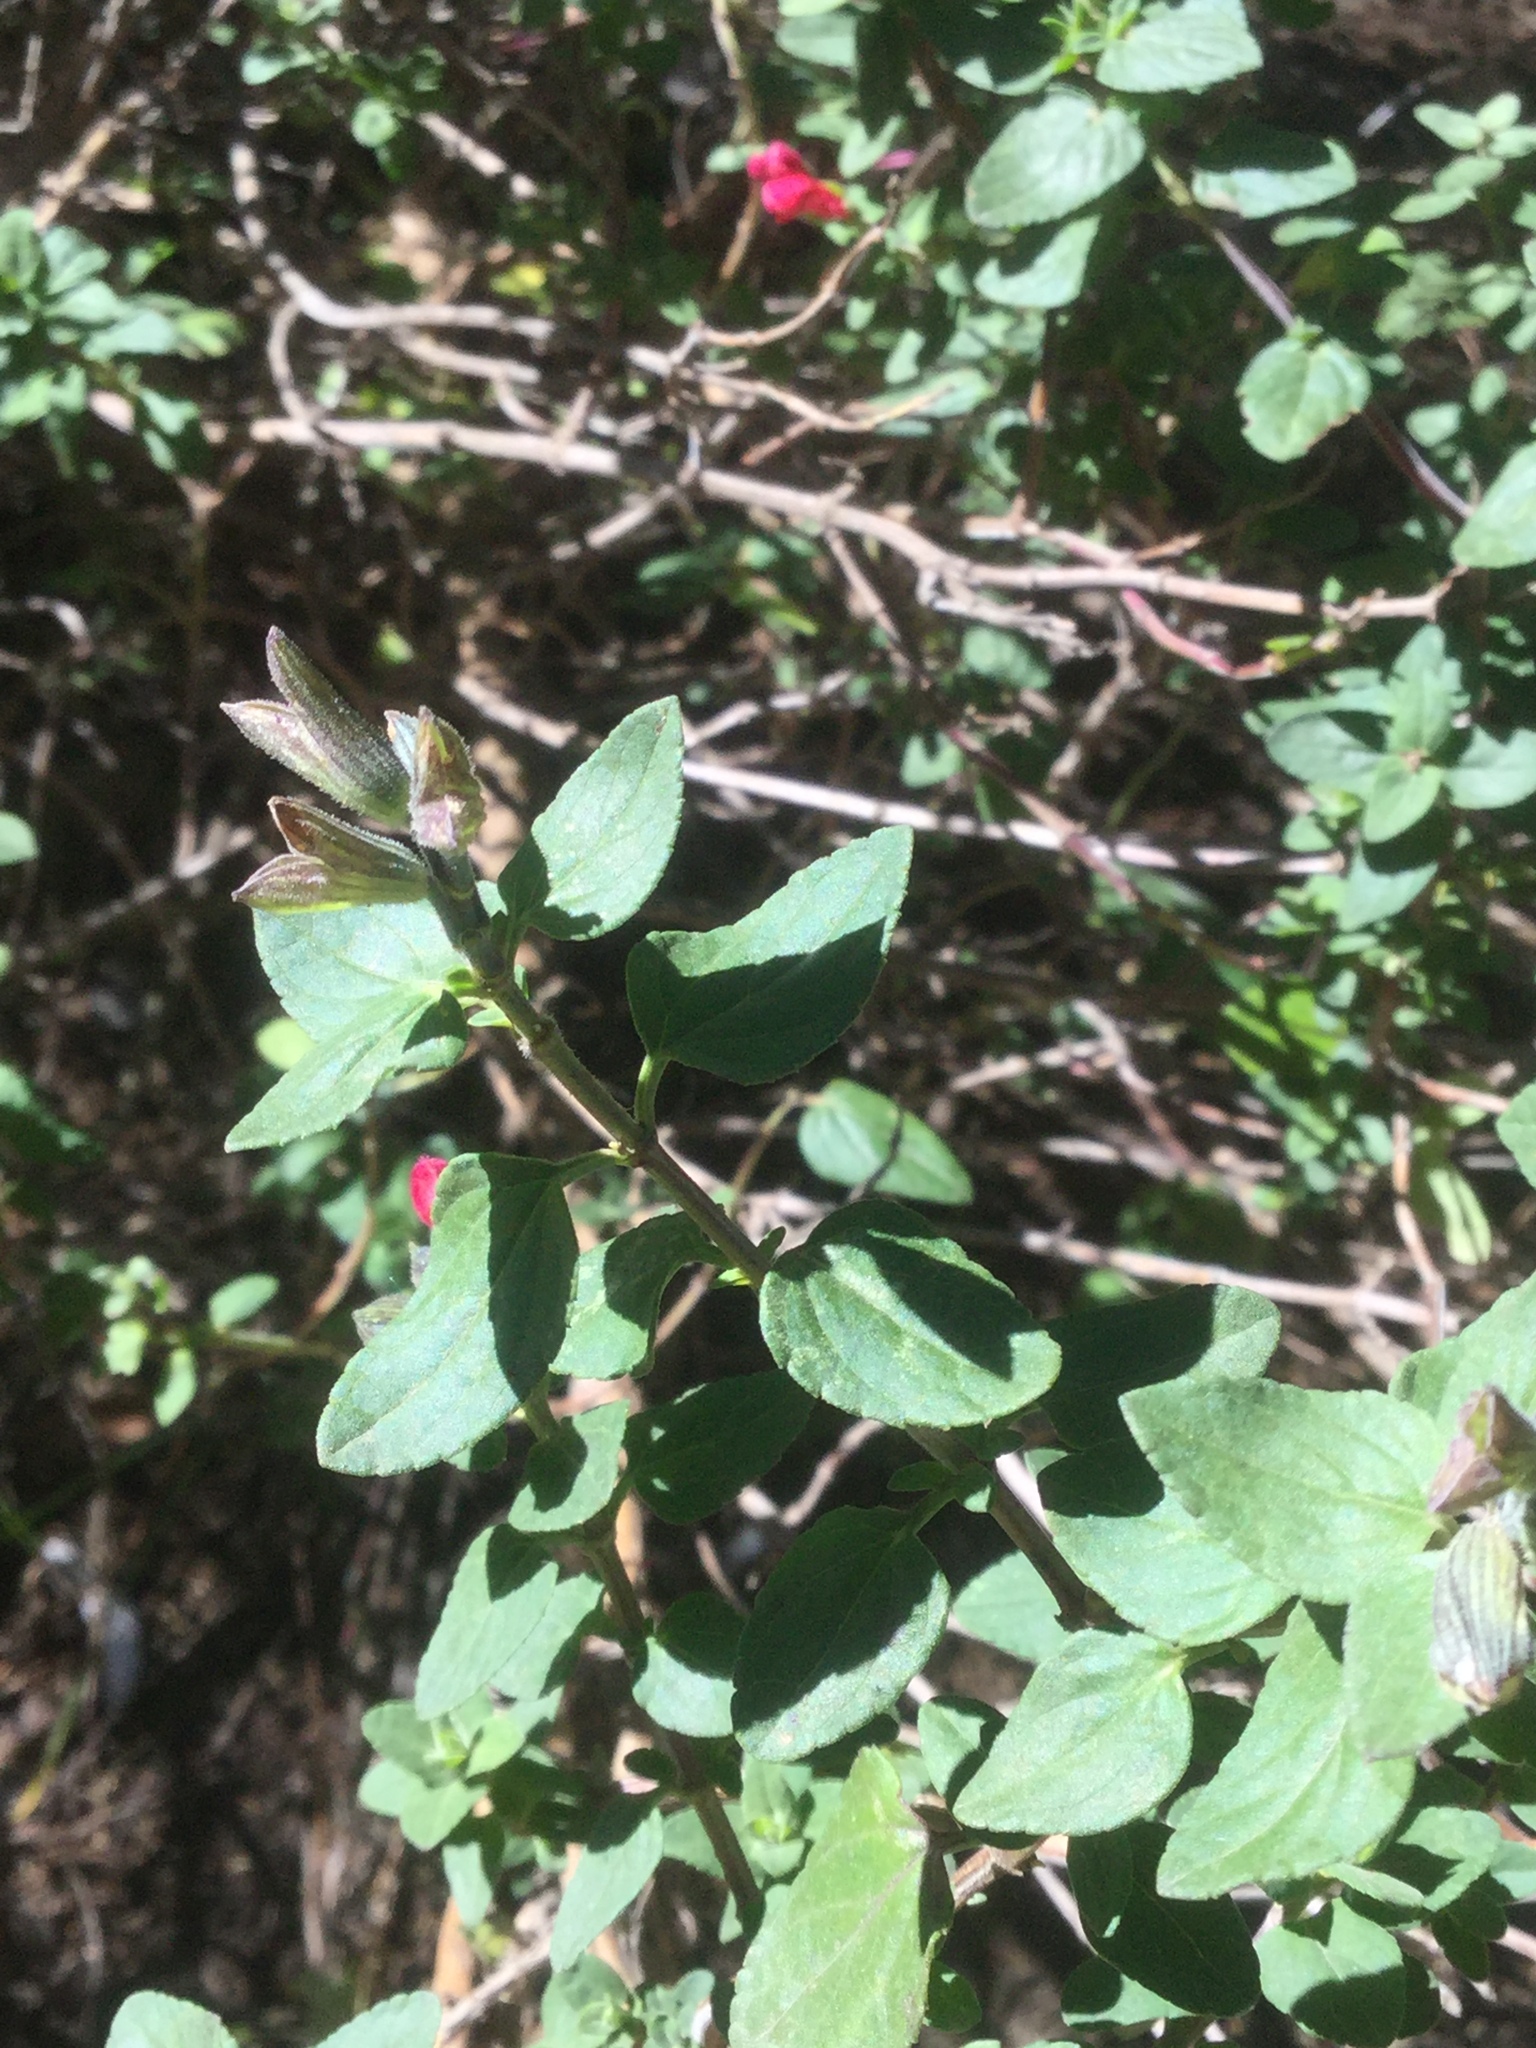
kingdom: Plantae
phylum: Tracheophyta
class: Magnoliopsida
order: Lamiales
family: Lamiaceae
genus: Salvia
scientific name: Salvia microphylla
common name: Baby sage
